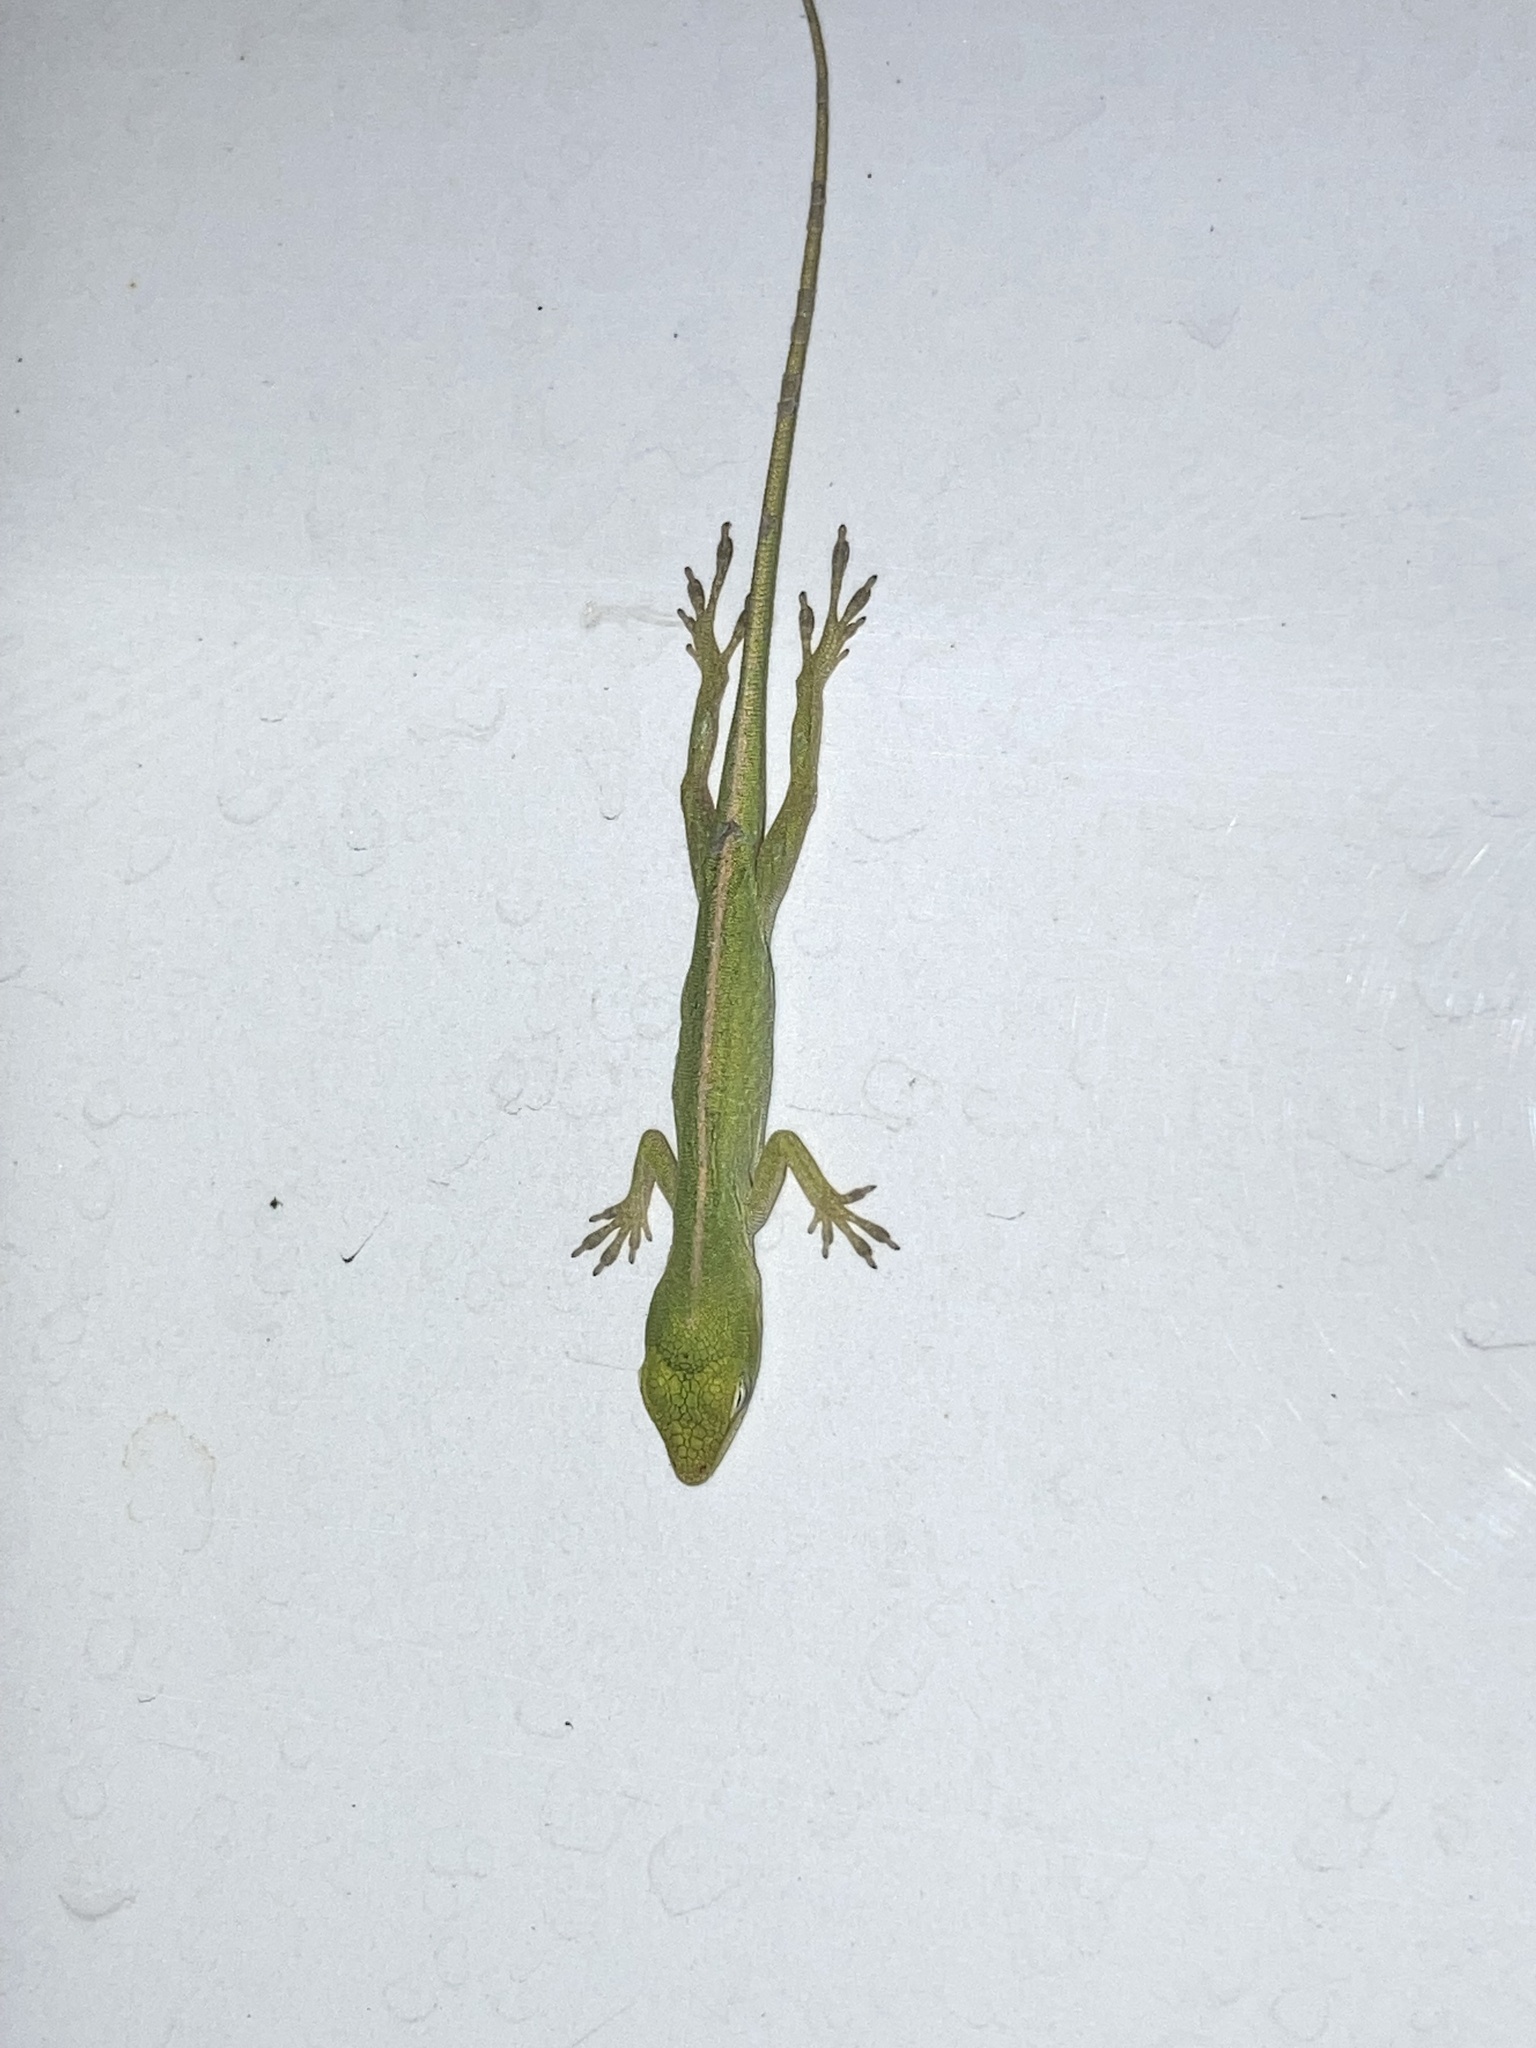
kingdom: Animalia
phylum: Chordata
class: Squamata
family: Dactyloidae
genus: Anolis
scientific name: Anolis carolinensis
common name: Green anole
